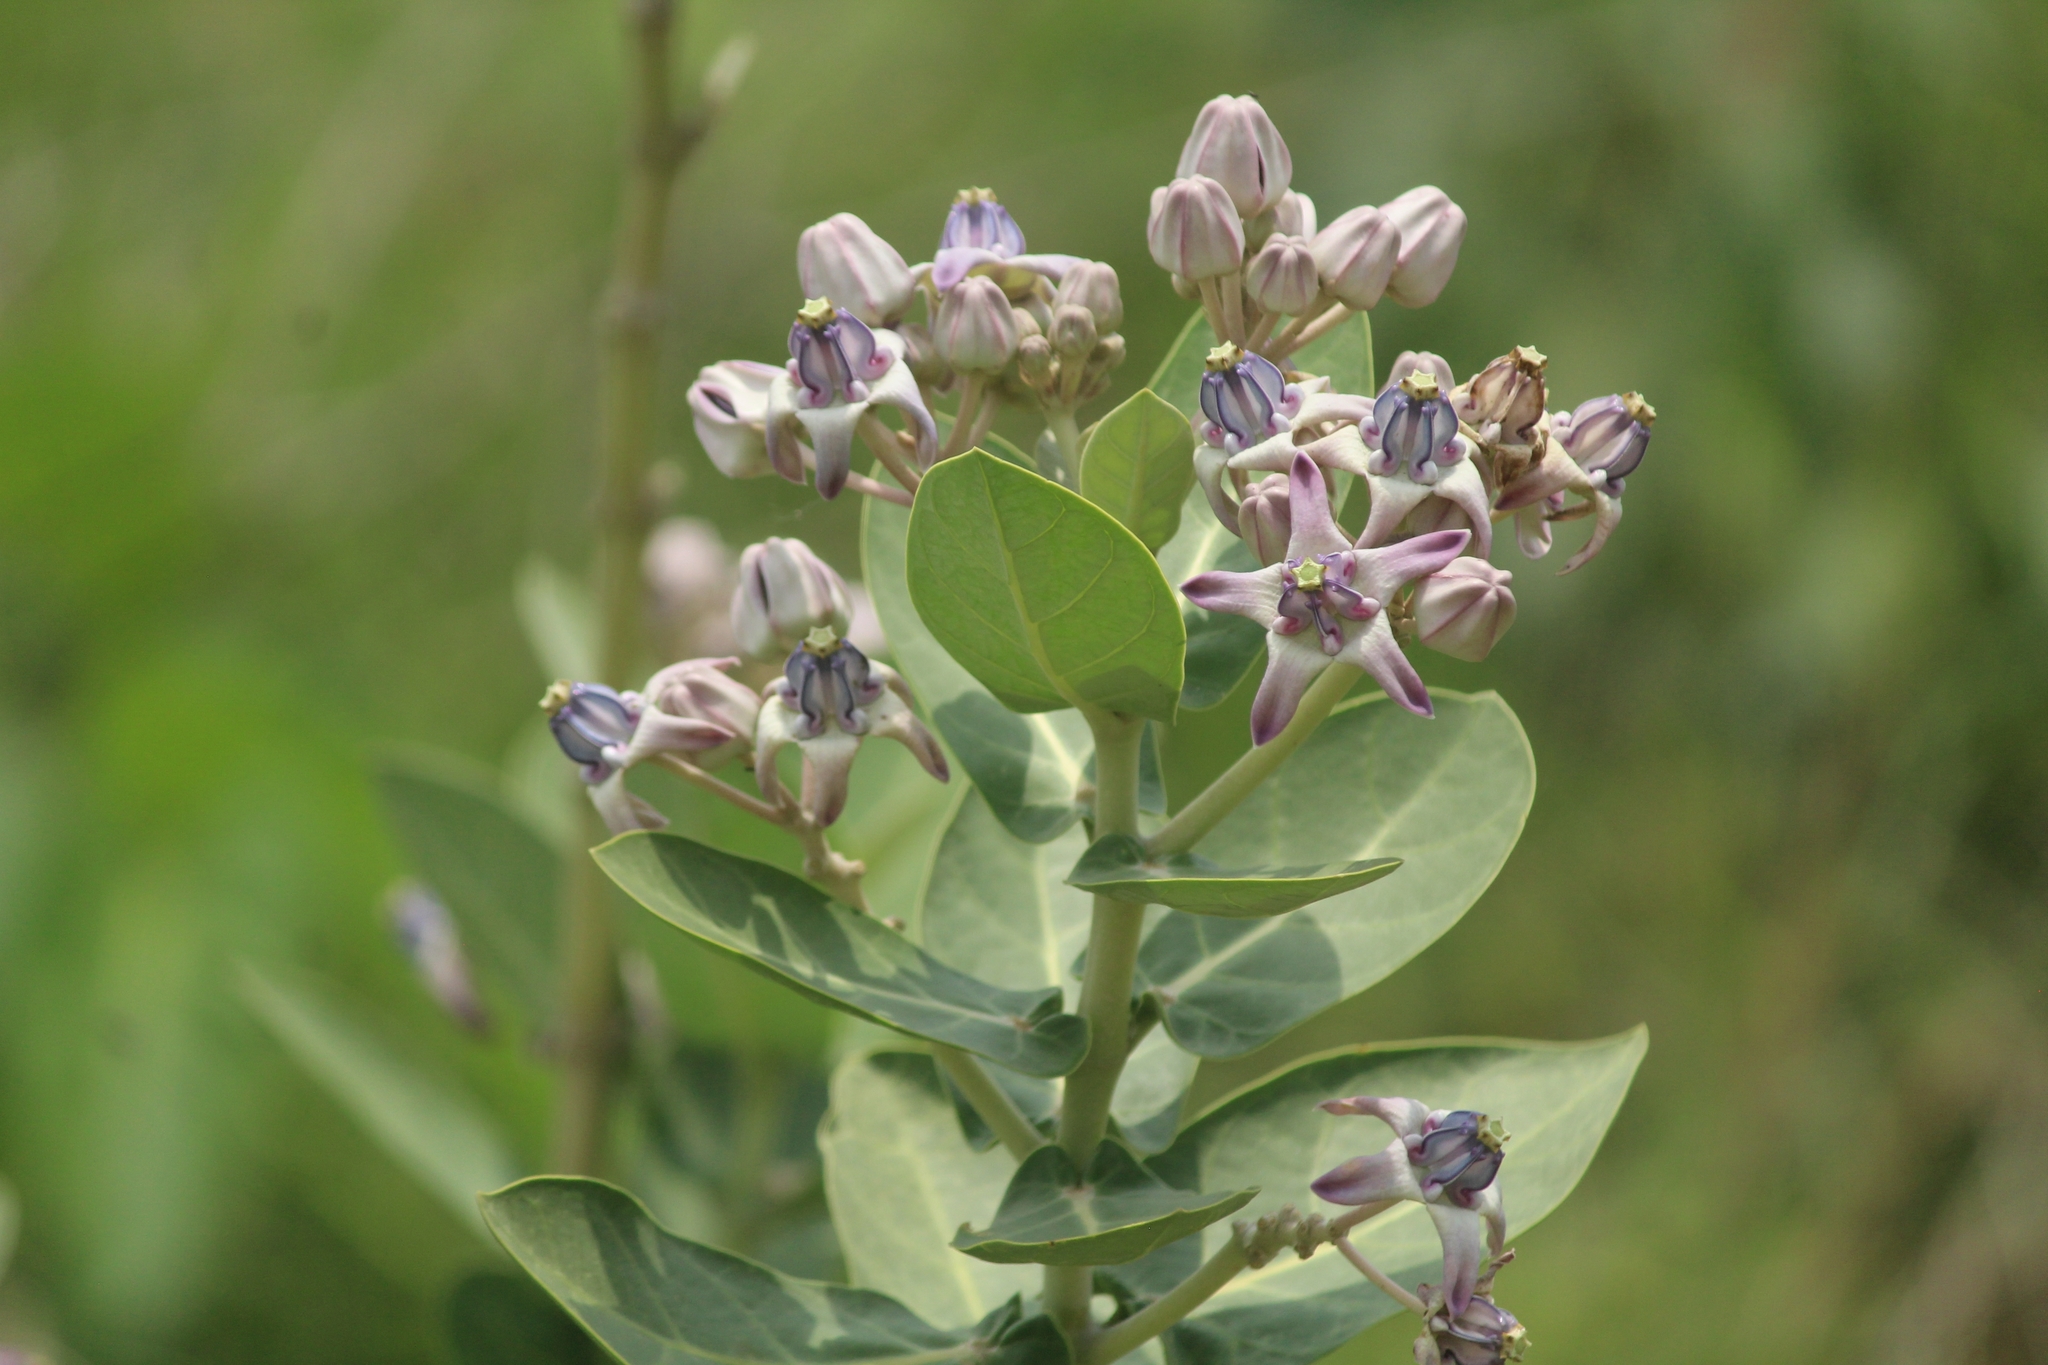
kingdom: Plantae
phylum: Tracheophyta
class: Magnoliopsida
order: Gentianales
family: Apocynaceae
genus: Calotropis
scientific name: Calotropis gigantea
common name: Crown flower
